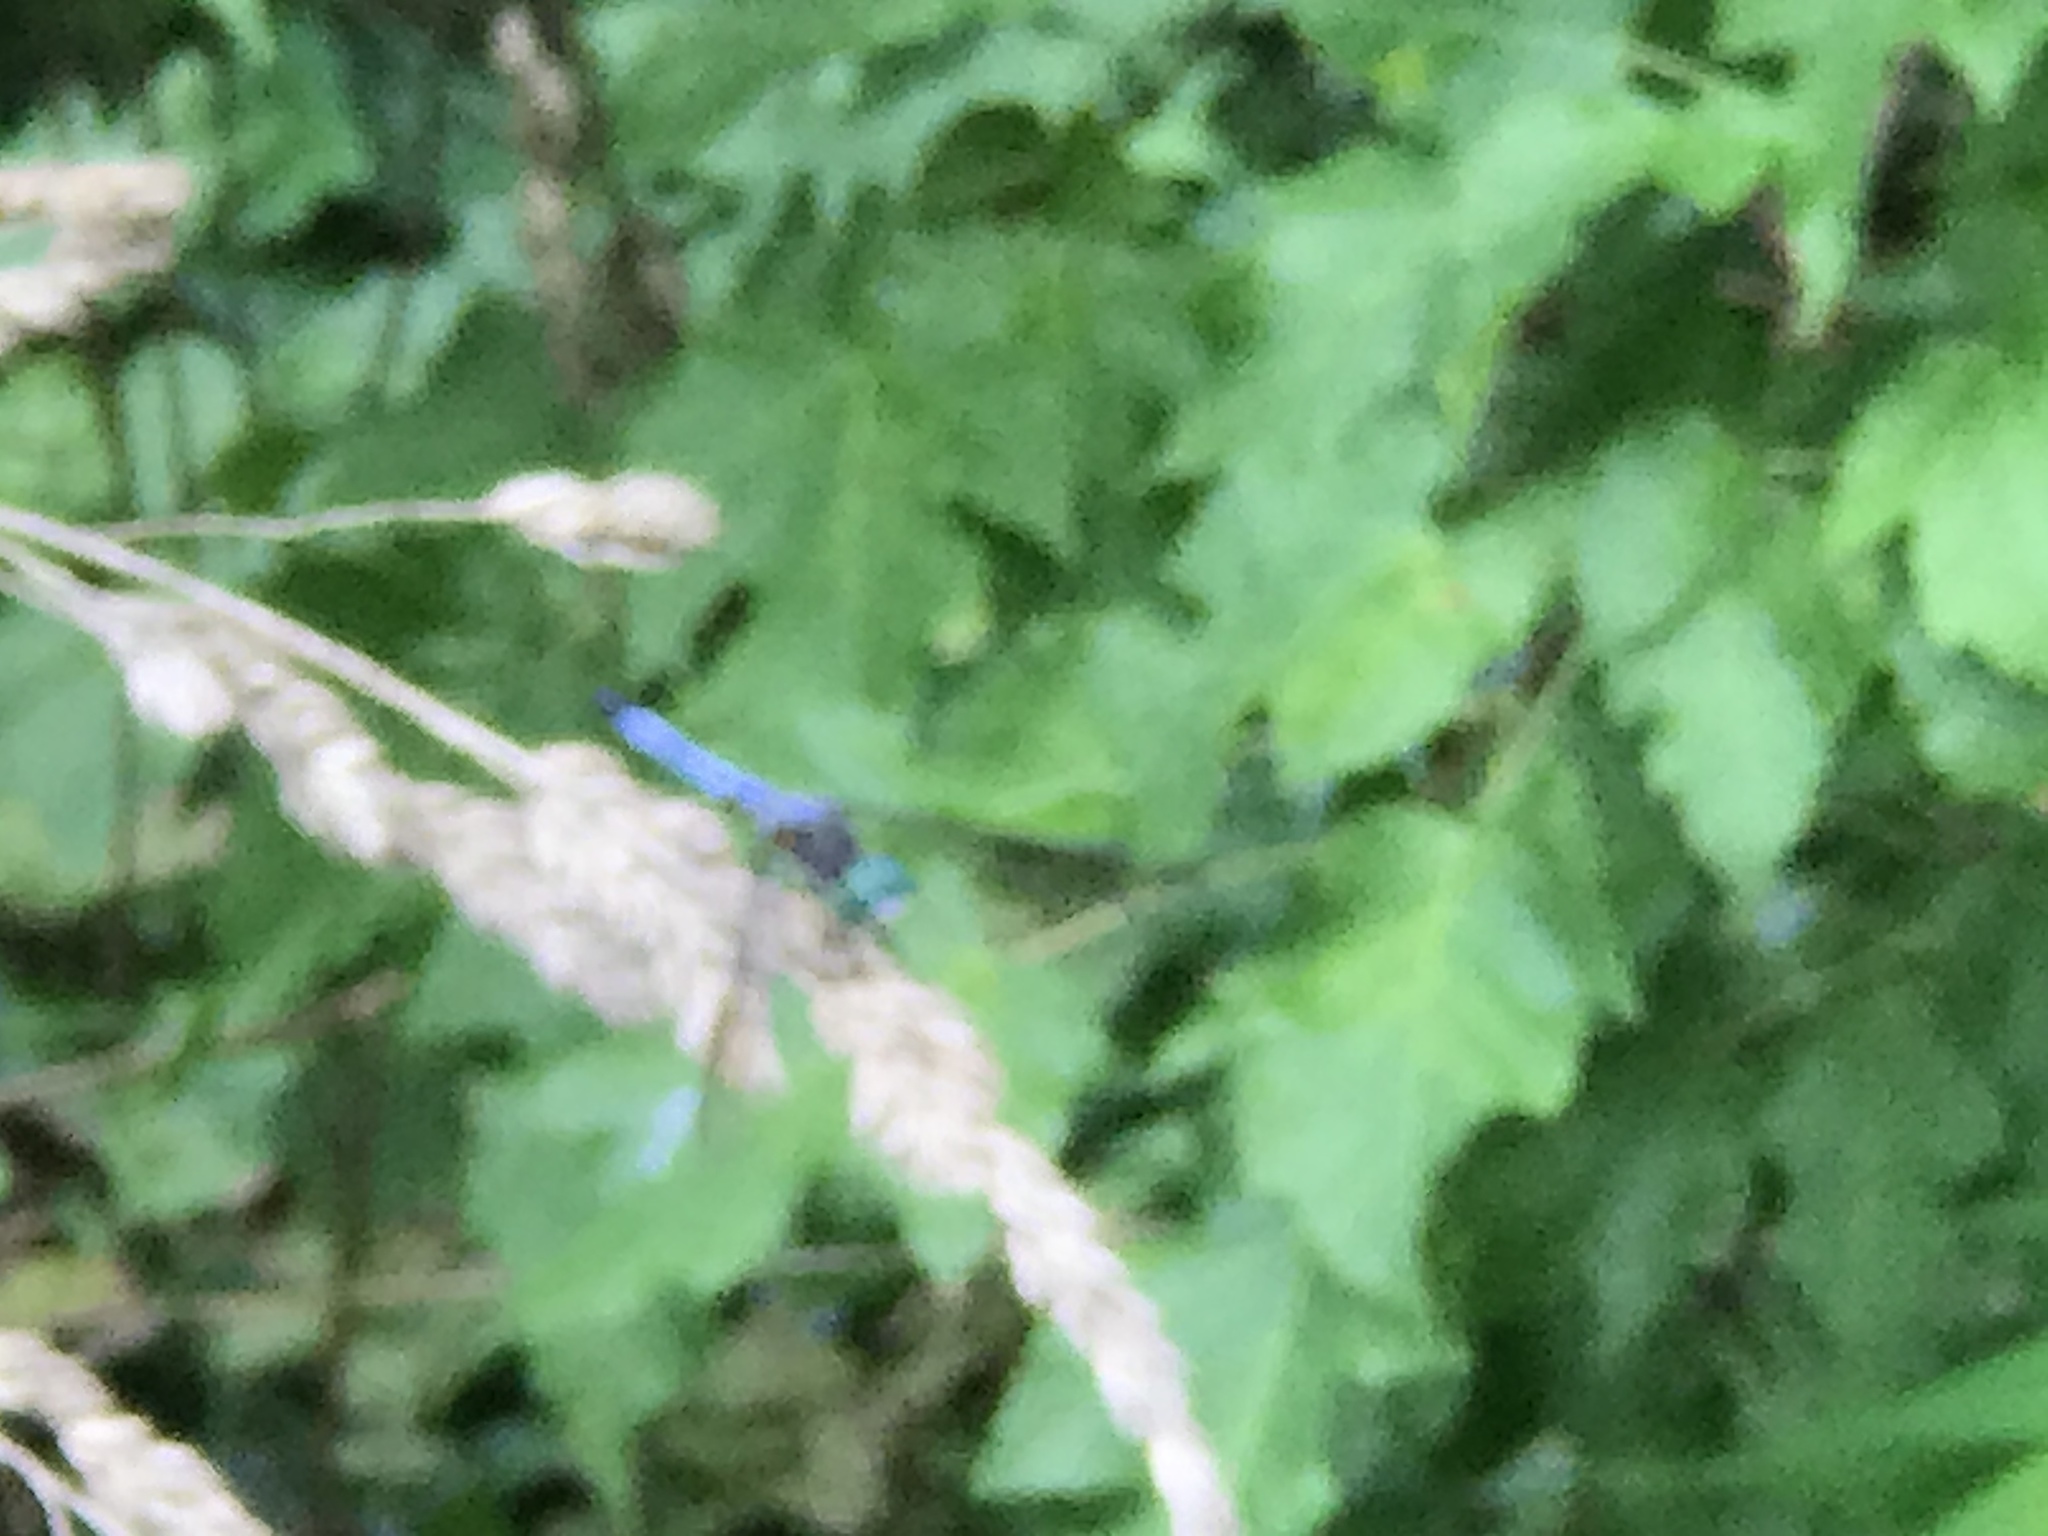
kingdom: Animalia
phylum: Arthropoda
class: Insecta
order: Odonata
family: Libellulidae
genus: Pachydiplax
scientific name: Pachydiplax longipennis
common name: Blue dasher
